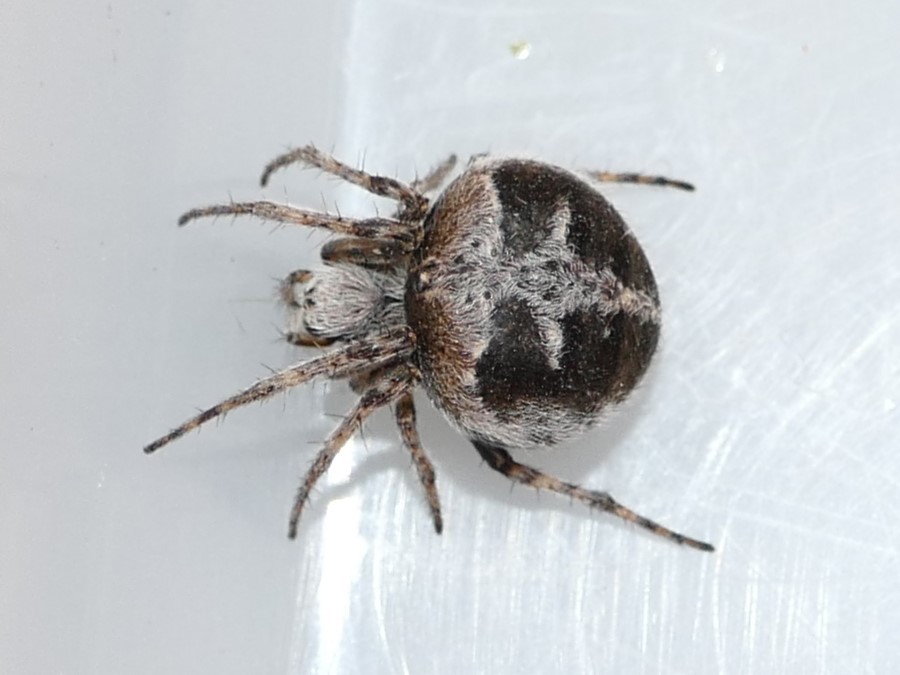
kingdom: Animalia
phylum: Arthropoda
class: Arachnida
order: Araneae
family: Araneidae
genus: Agalenatea
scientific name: Agalenatea redii
